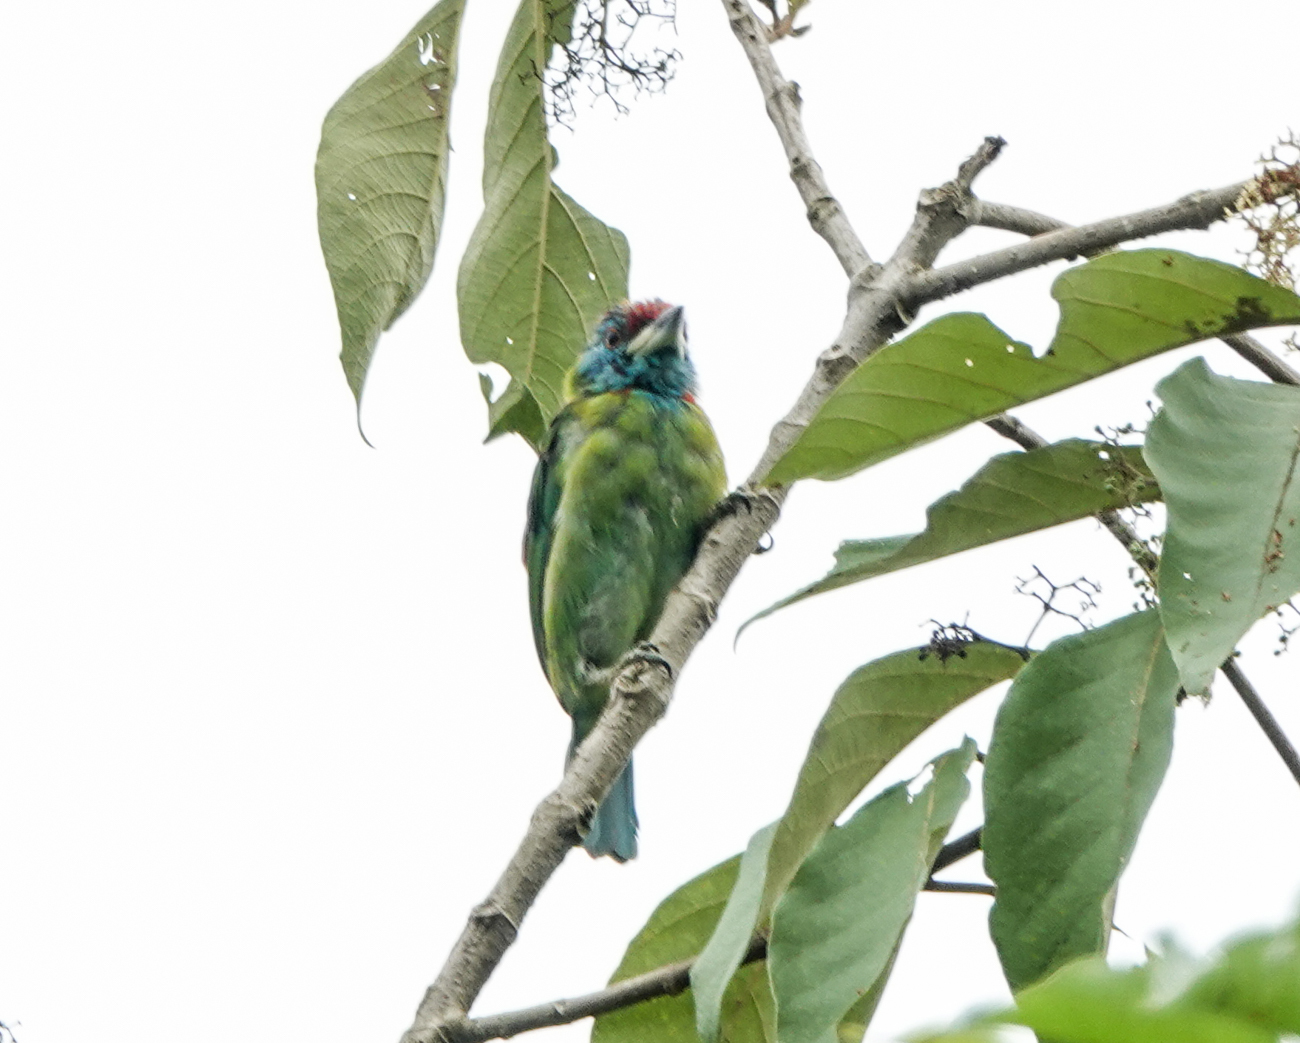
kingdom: Animalia
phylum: Chordata
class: Aves
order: Piciformes
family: Megalaimidae
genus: Psilopogon
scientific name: Psilopogon asiaticus
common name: Blue-throated barbet
